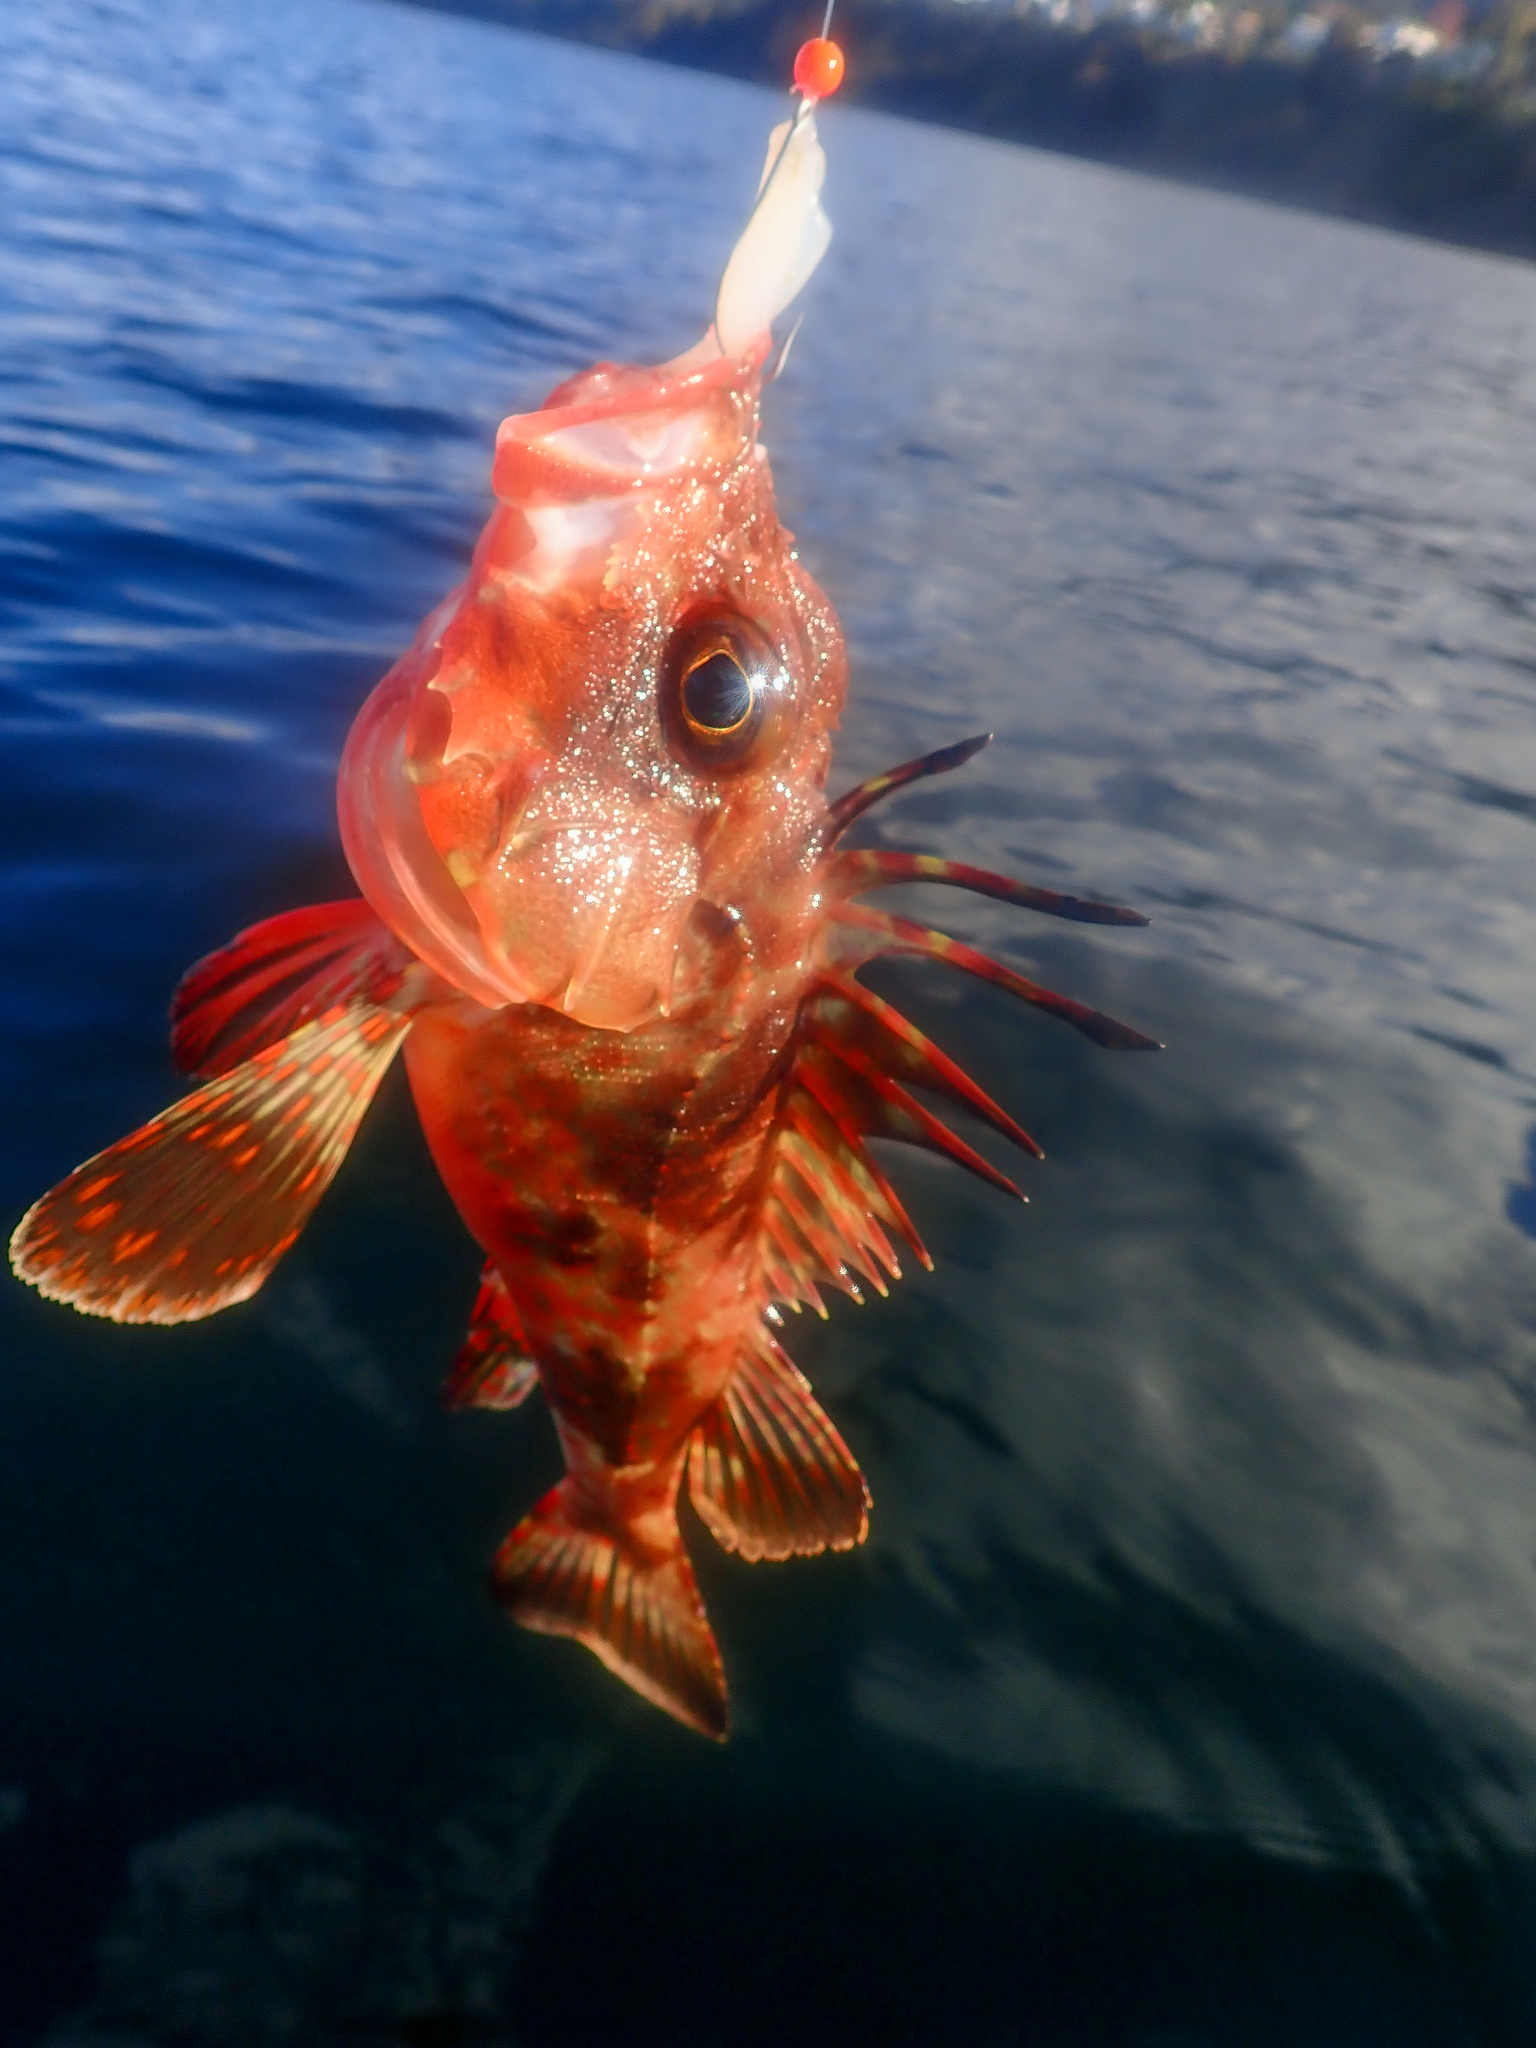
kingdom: Animalia
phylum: Chordata
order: Scorpaeniformes
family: Neosebastidae
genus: Neosebastes
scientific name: Neosebastes scorpaenoides
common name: Cobbler perch
